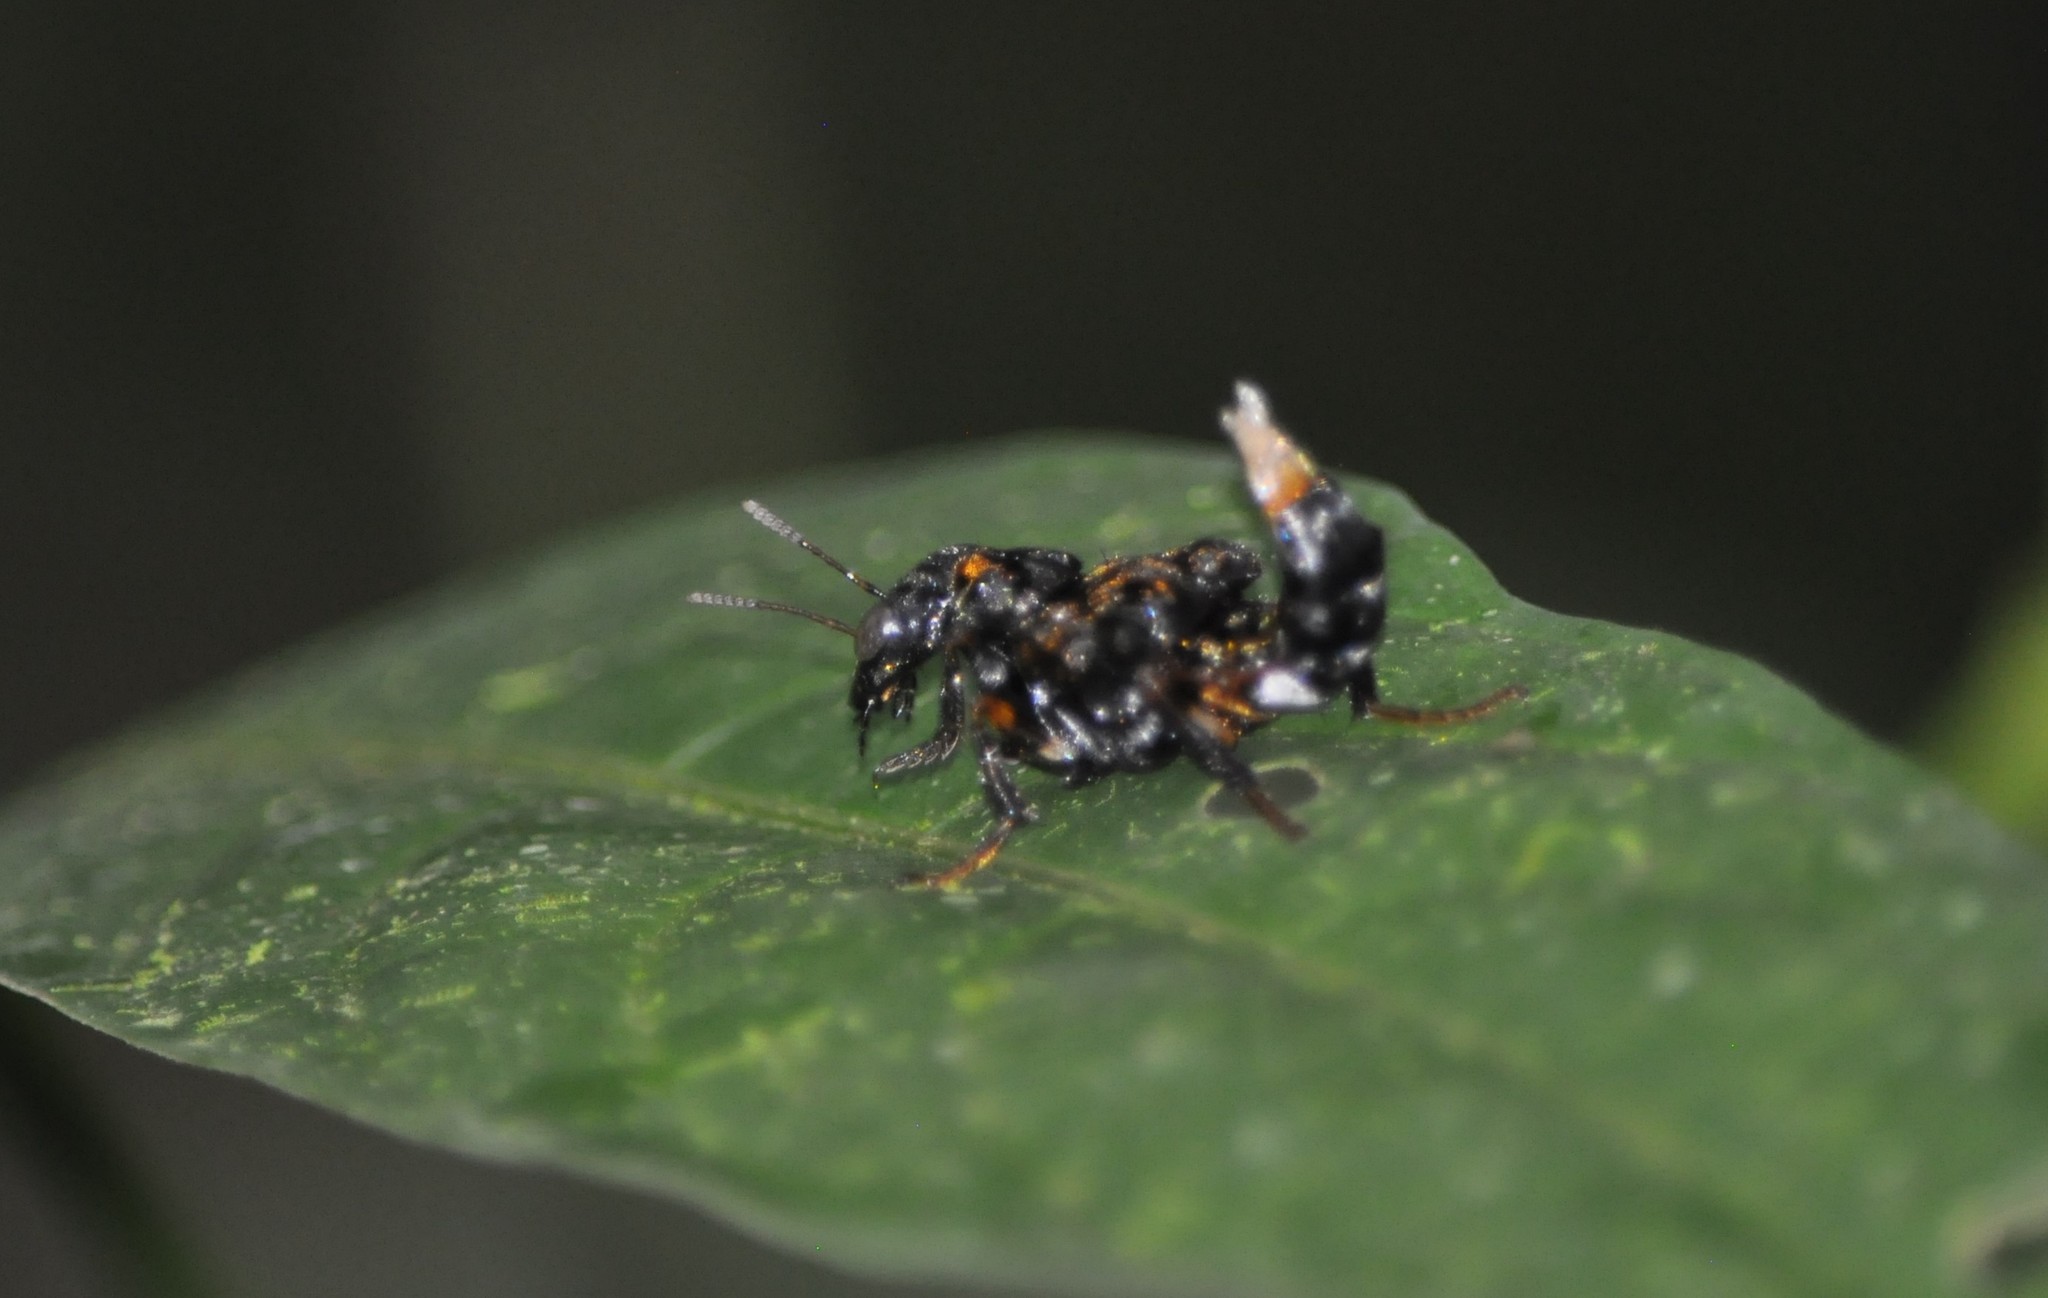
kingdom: Animalia
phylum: Arthropoda
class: Insecta
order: Coleoptera
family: Staphylinidae
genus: Leistotrophus
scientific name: Leistotrophus versicolor
